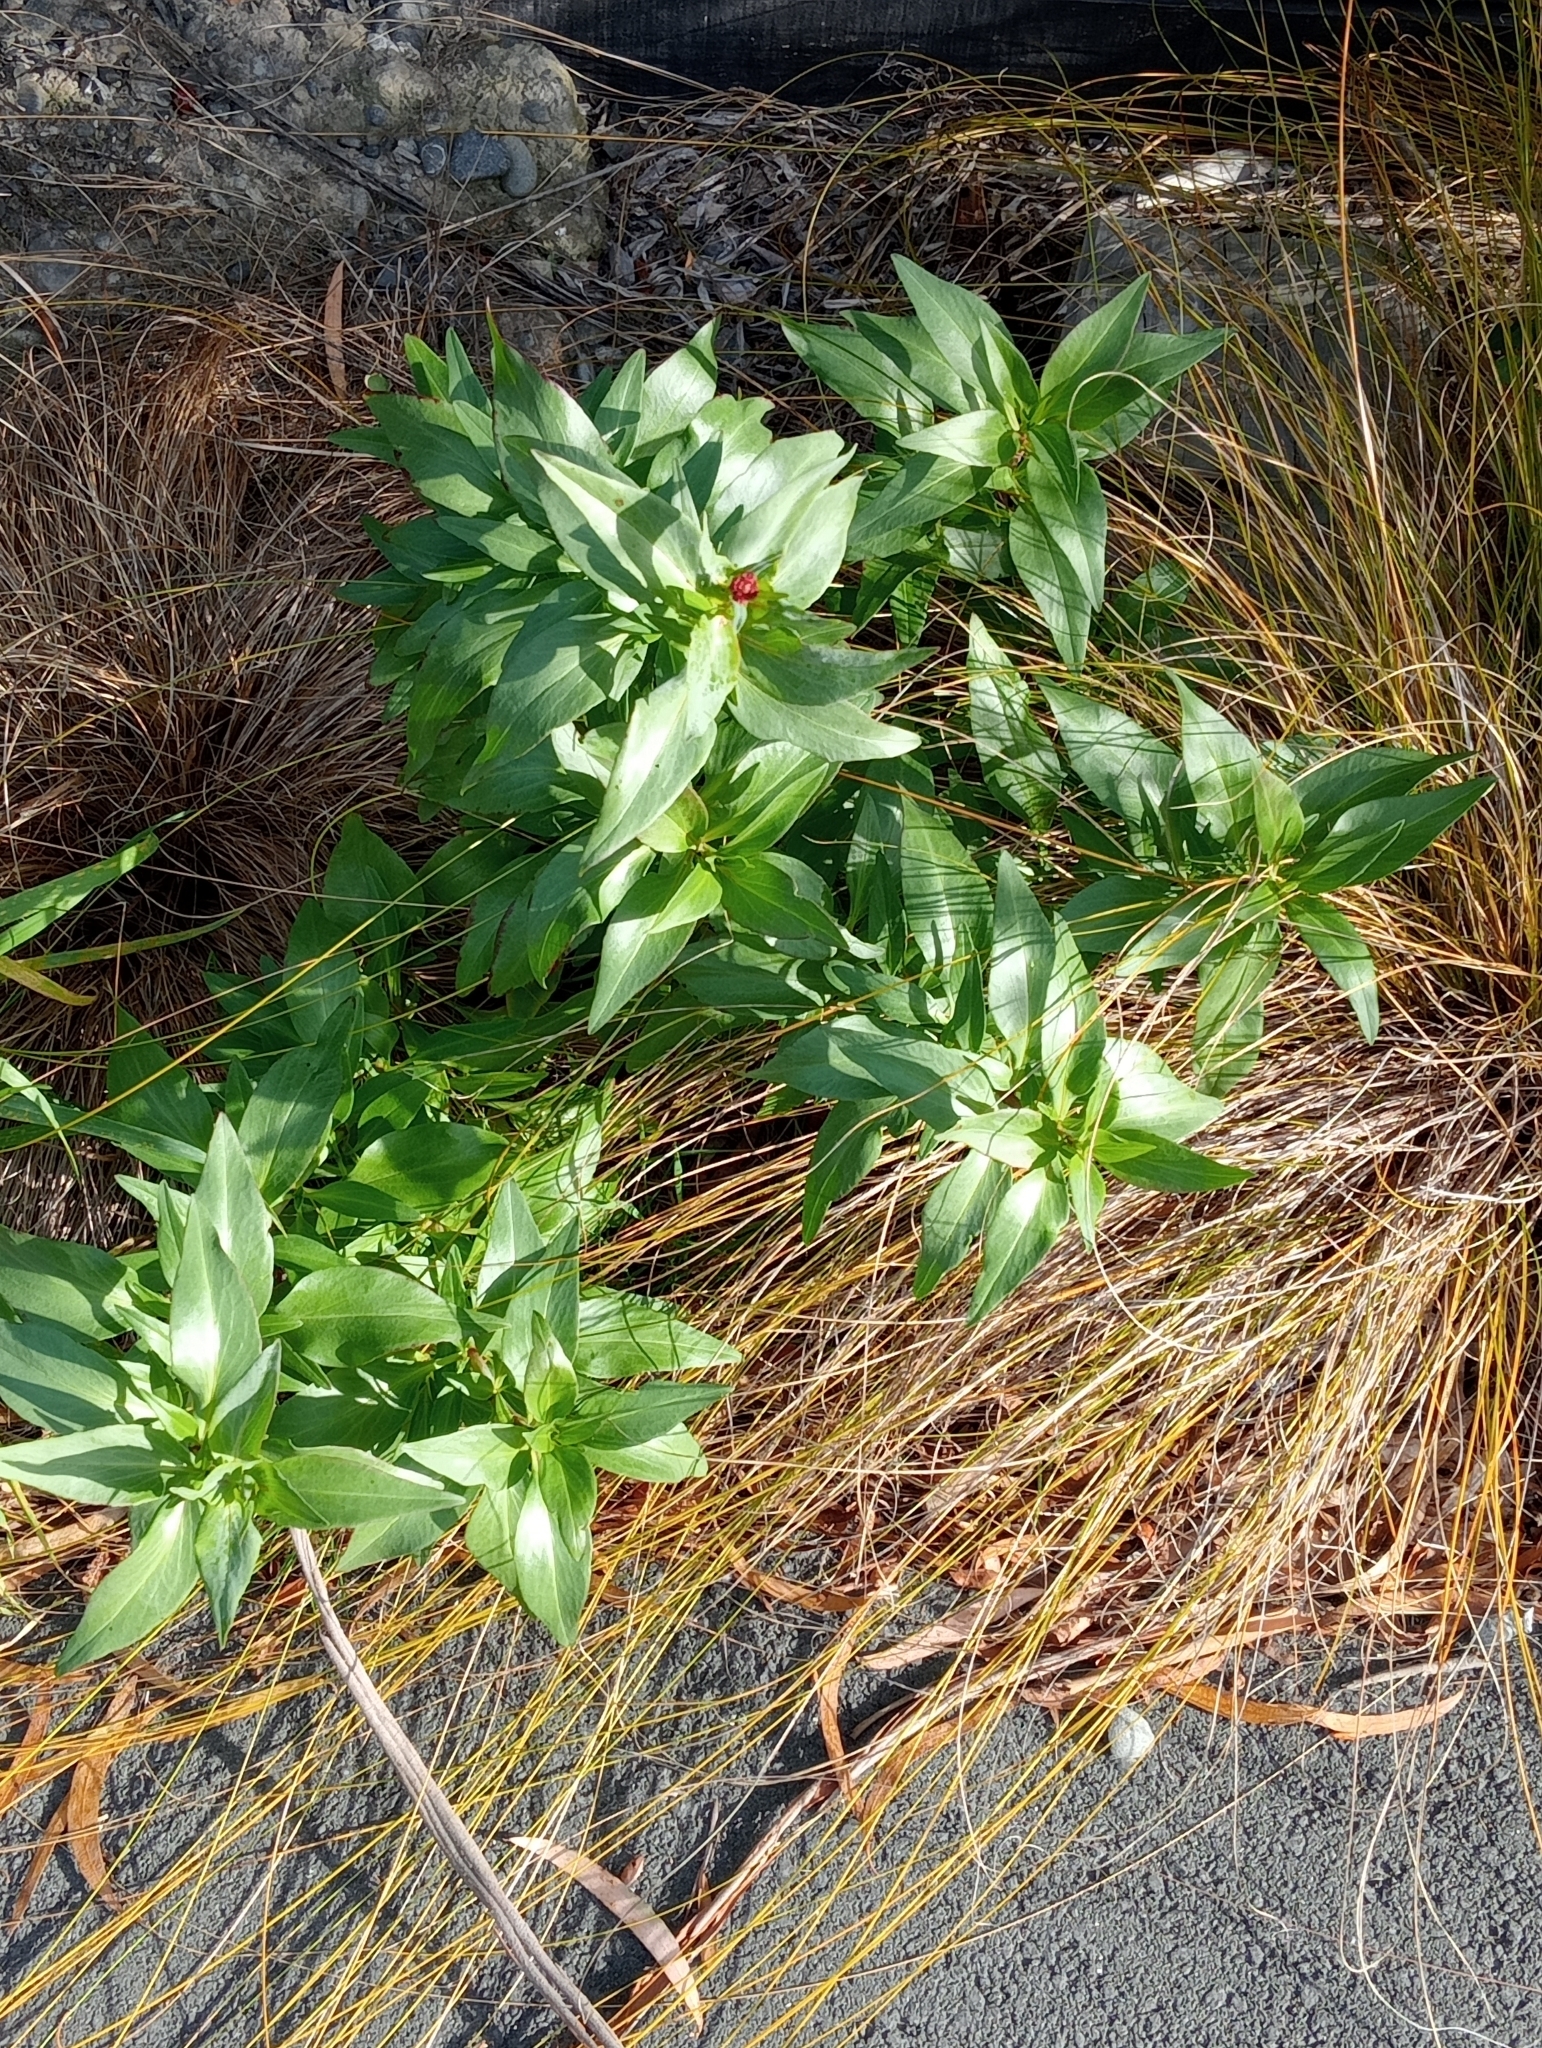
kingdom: Plantae
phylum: Tracheophyta
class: Magnoliopsida
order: Dipsacales
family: Caprifoliaceae
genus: Centranthus
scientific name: Centranthus ruber
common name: Red valerian
